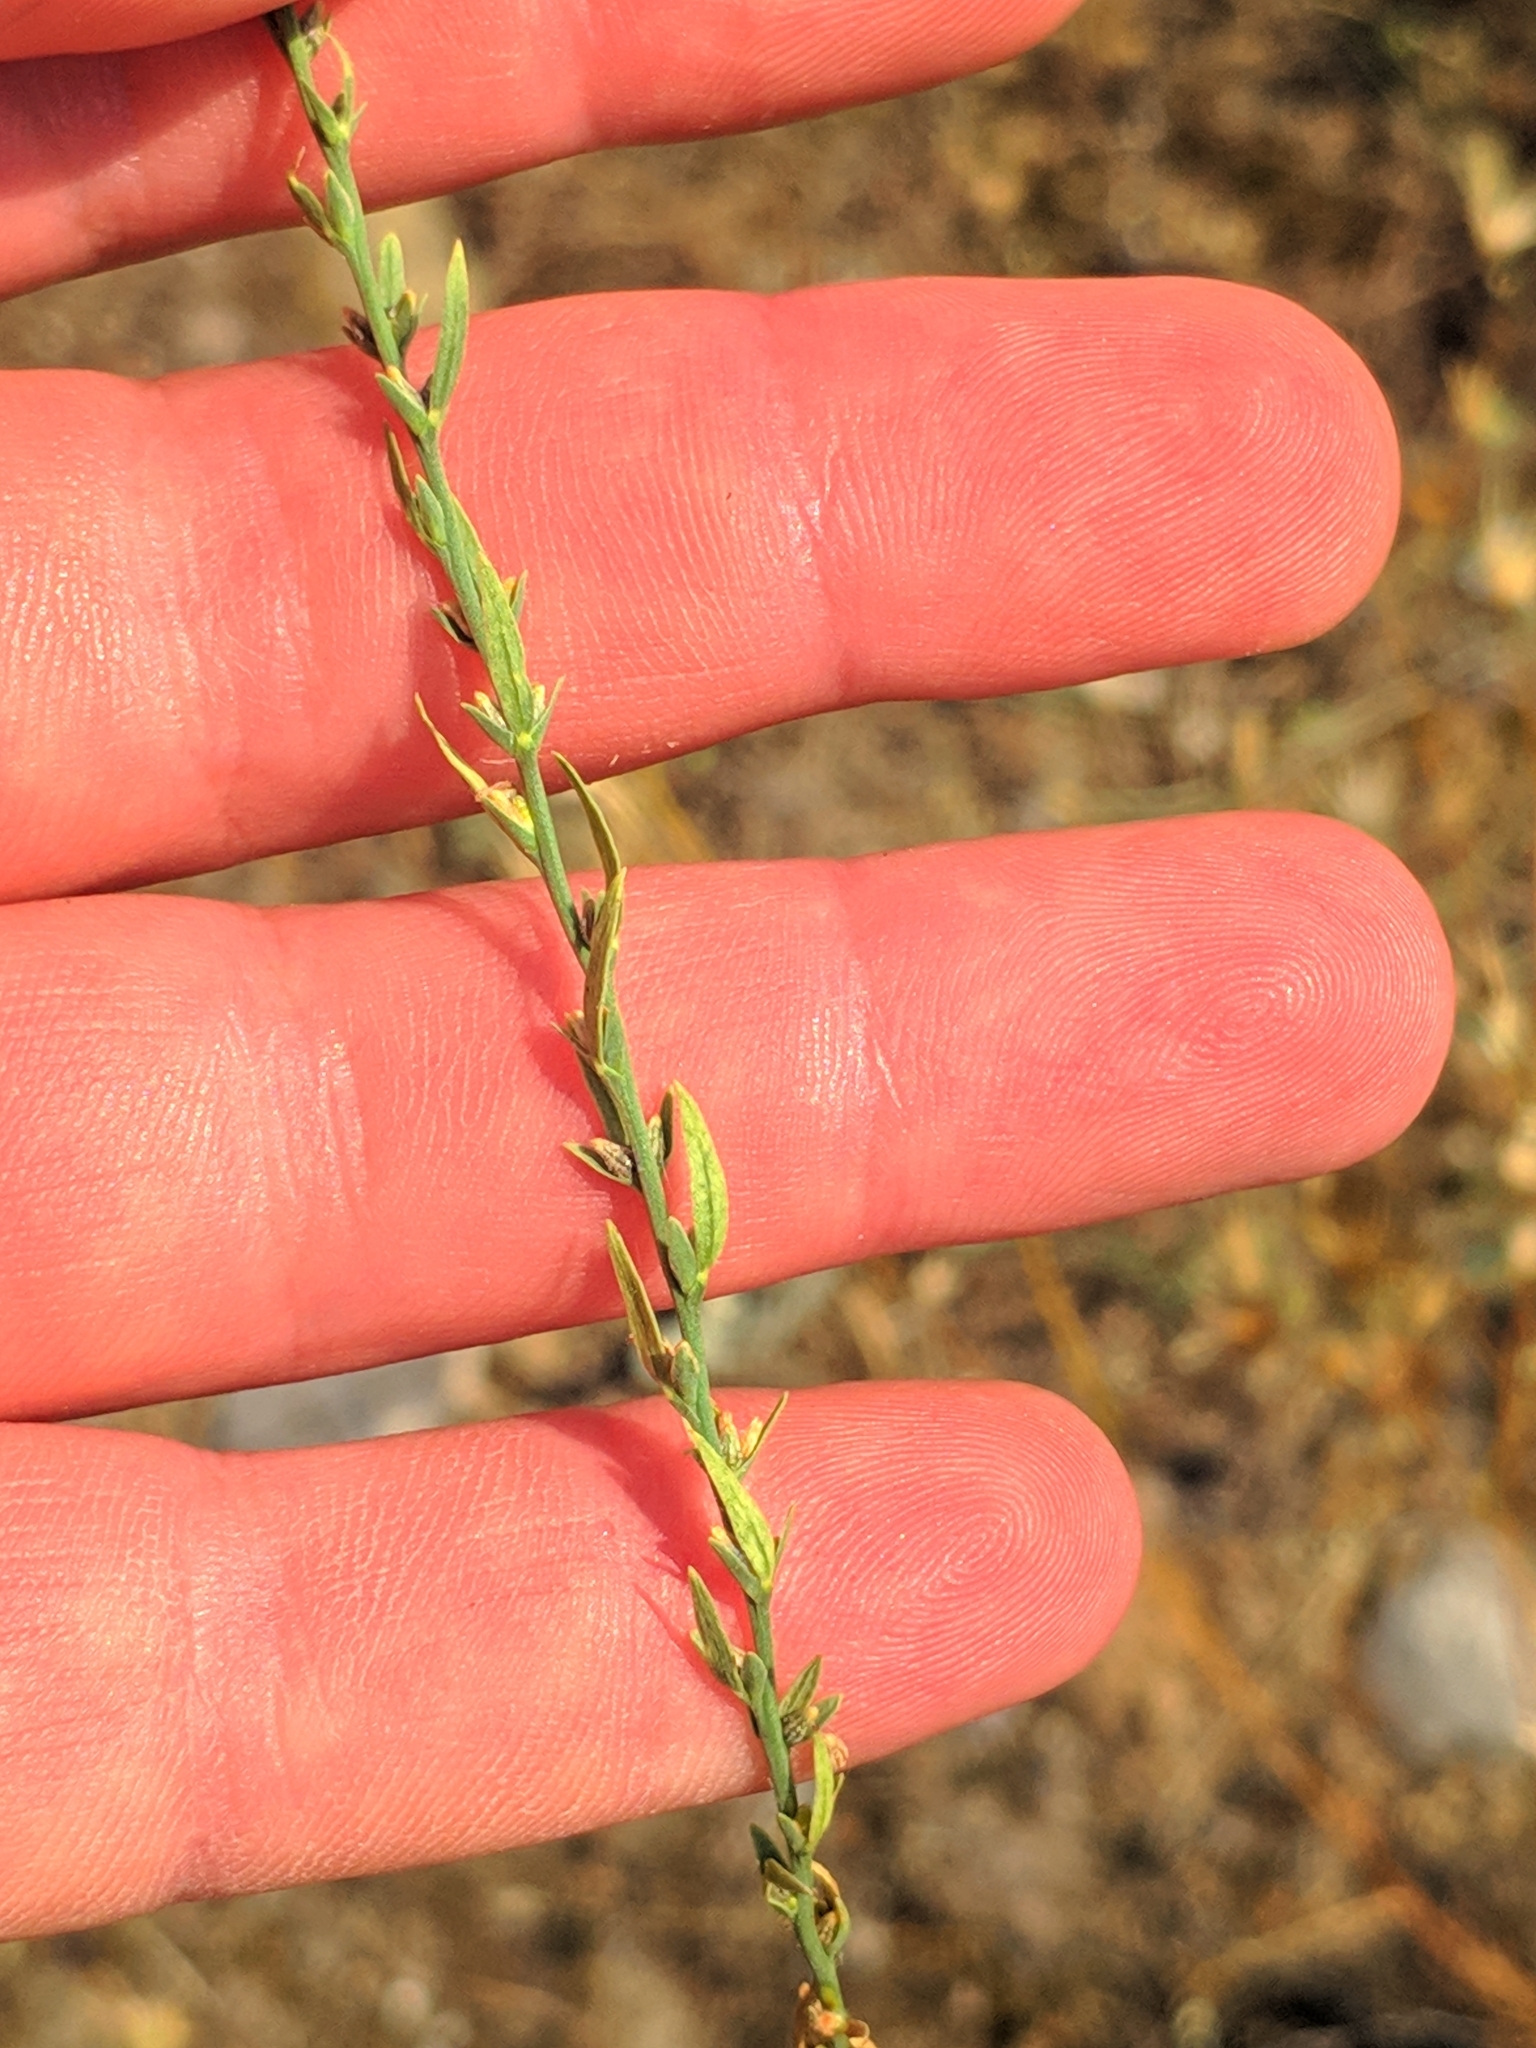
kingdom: Plantae
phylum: Tracheophyta
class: Magnoliopsida
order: Malvales
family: Thymelaeaceae
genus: Thymelaea
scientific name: Thymelaea passerina
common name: Annual thymelaea
